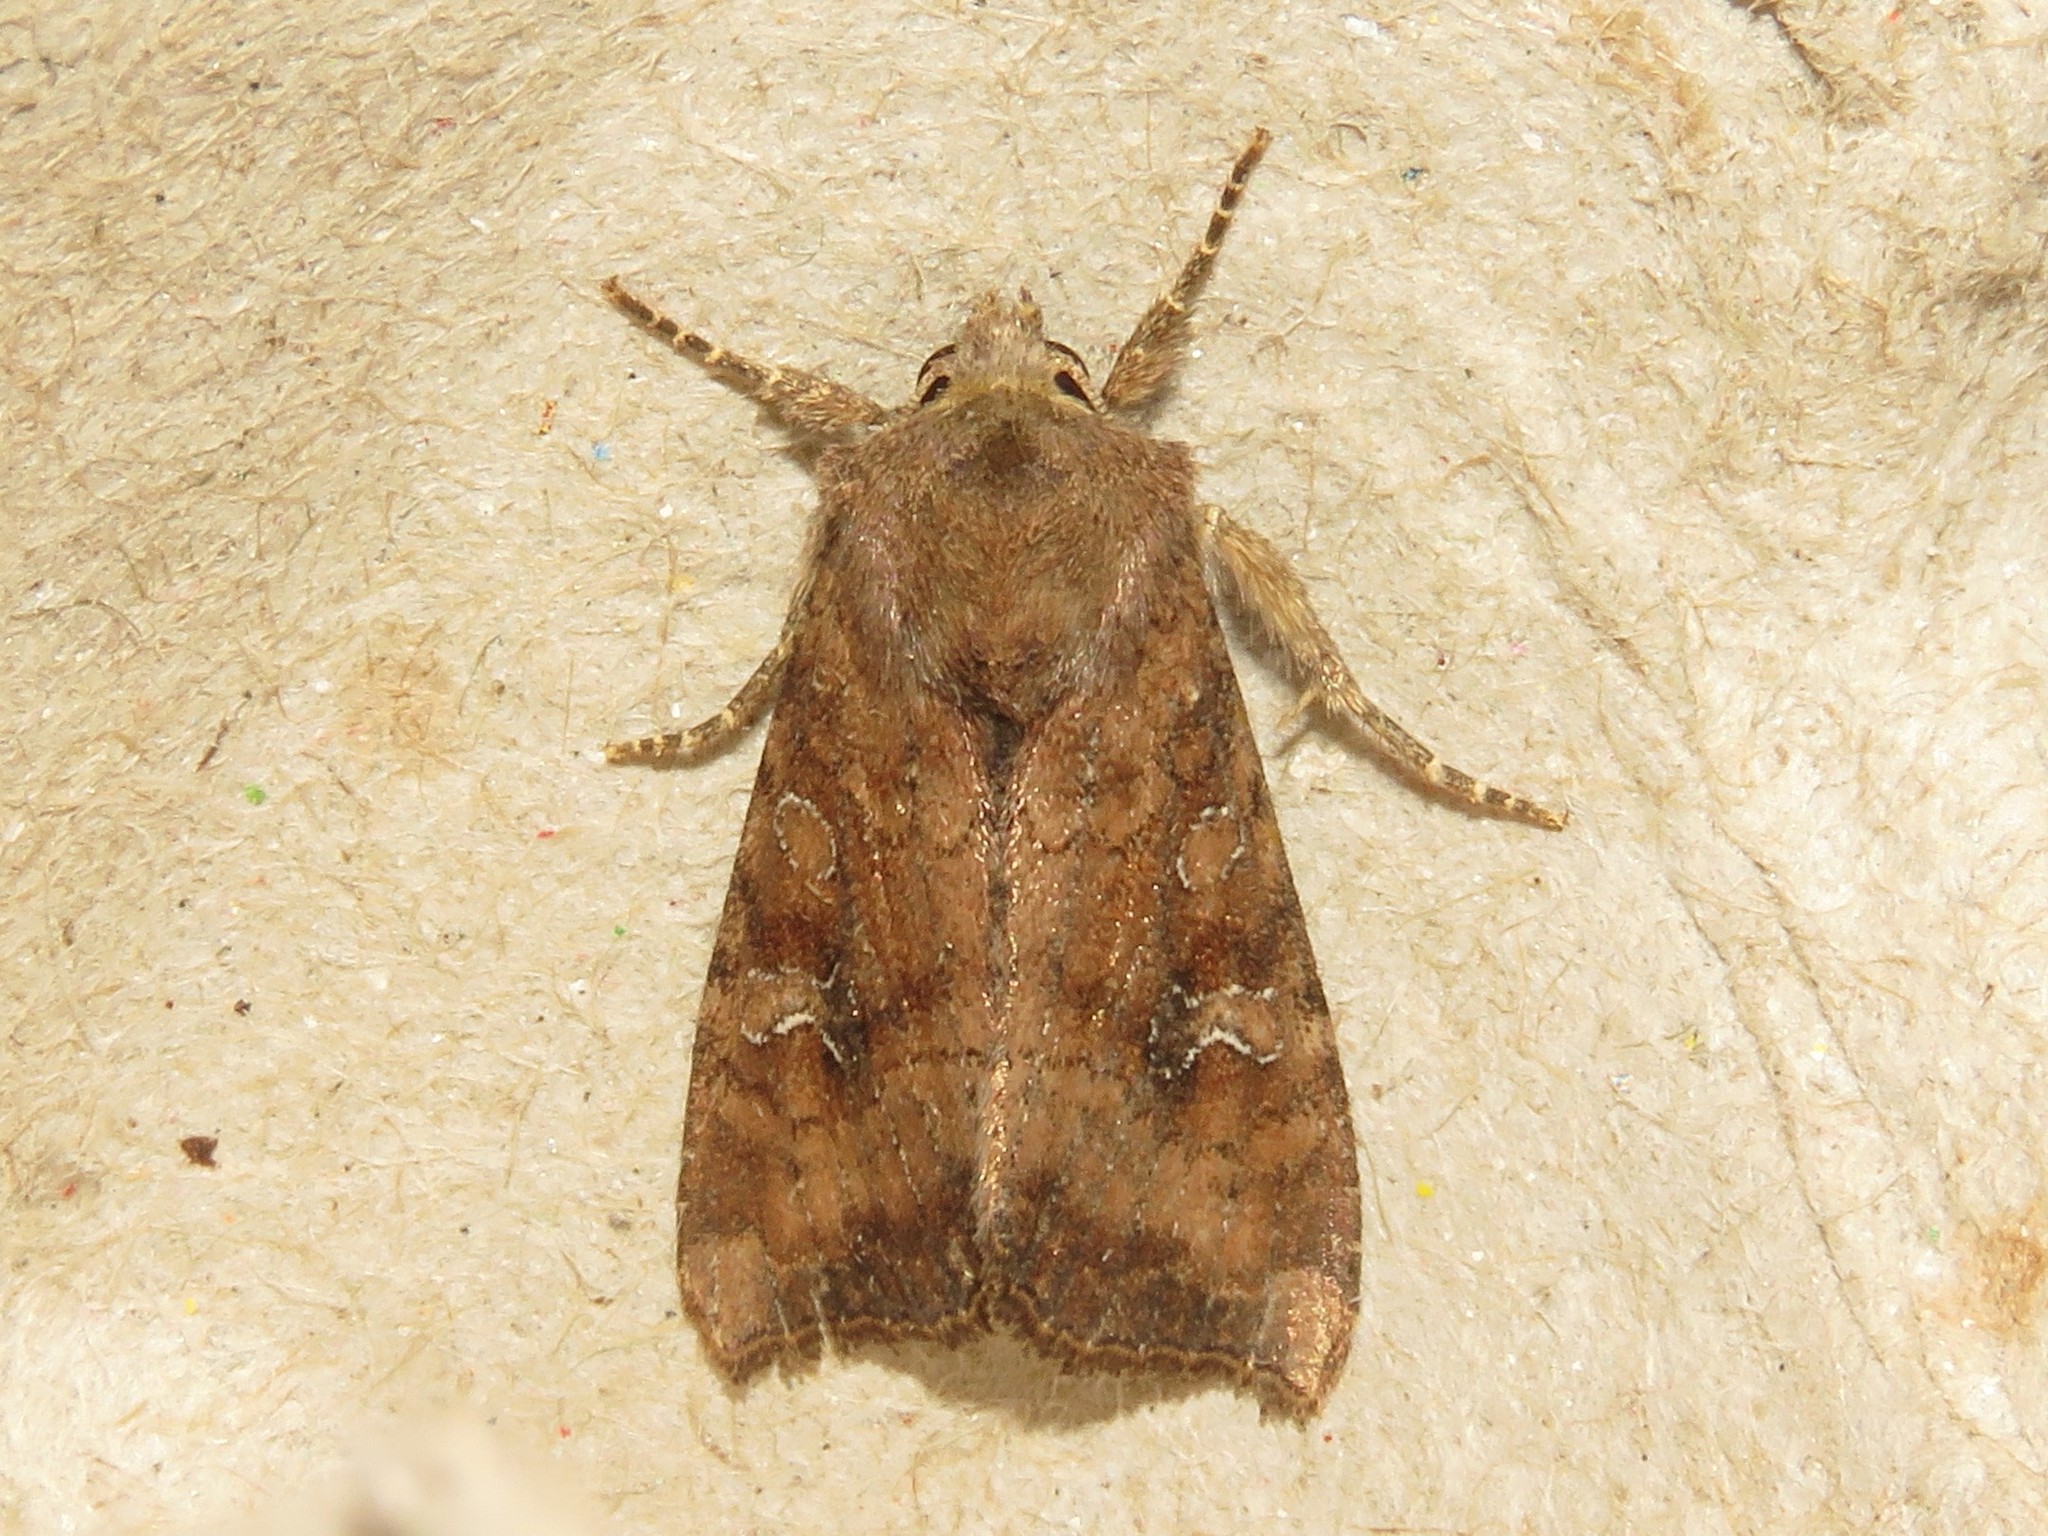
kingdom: Animalia
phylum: Arthropoda
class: Insecta
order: Lepidoptera
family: Noctuidae
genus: Loscopia
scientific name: Loscopia velata
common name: Veiled ear moth
